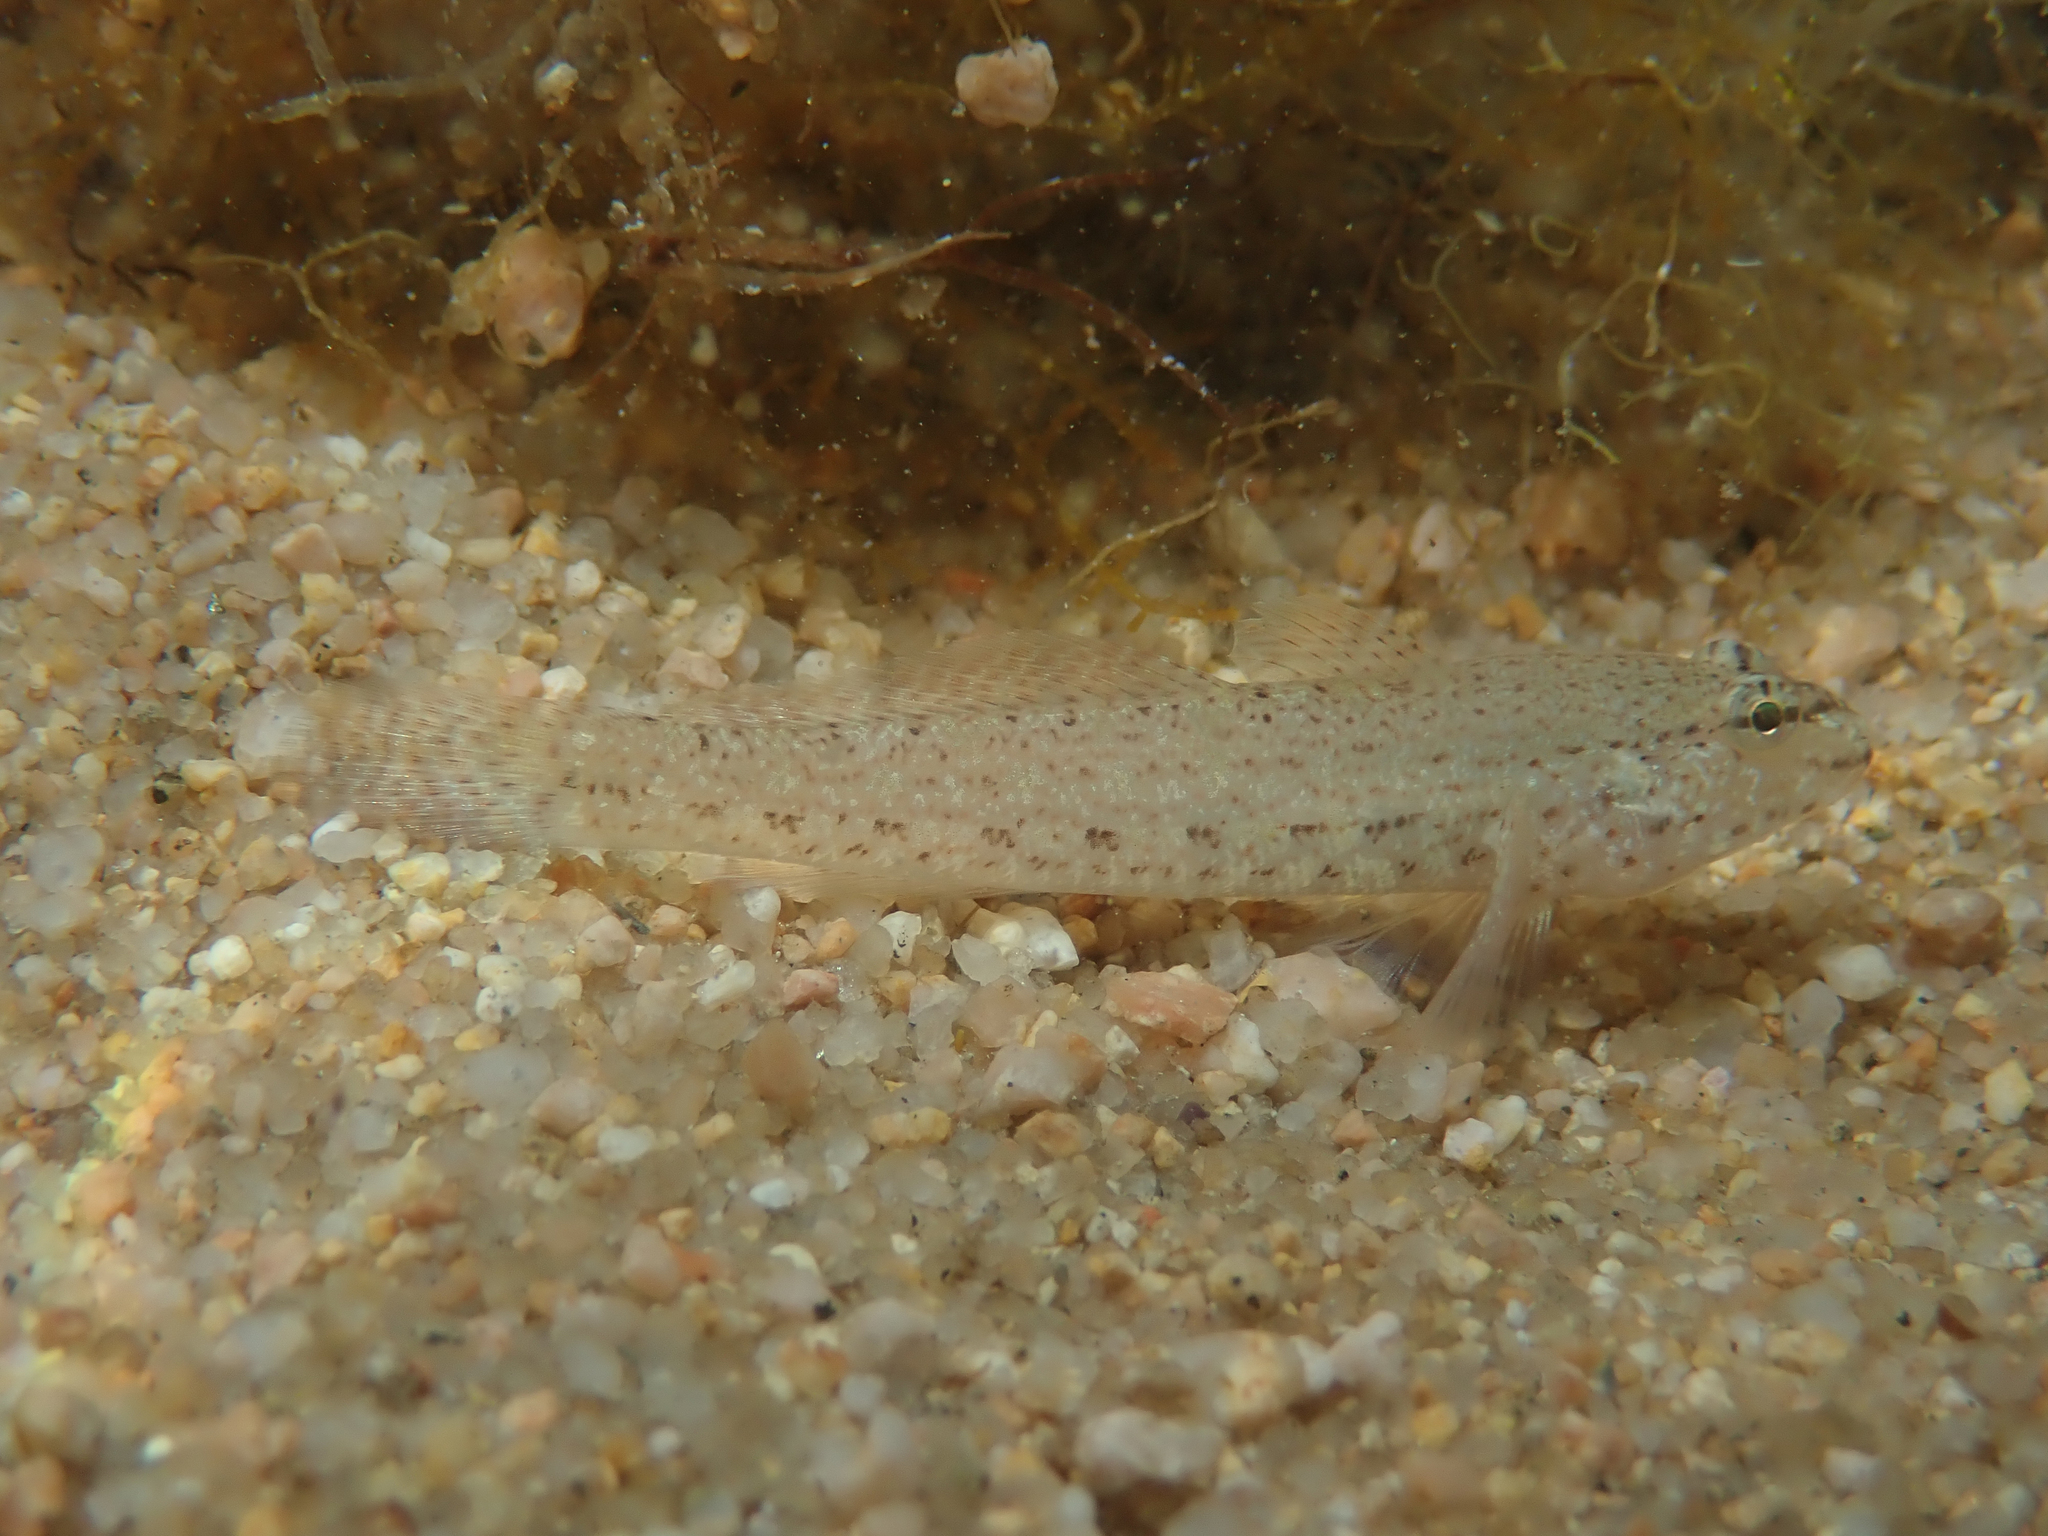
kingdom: Animalia
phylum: Chordata
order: Perciformes
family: Gobiidae
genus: Gobius
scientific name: Gobius incognitus
